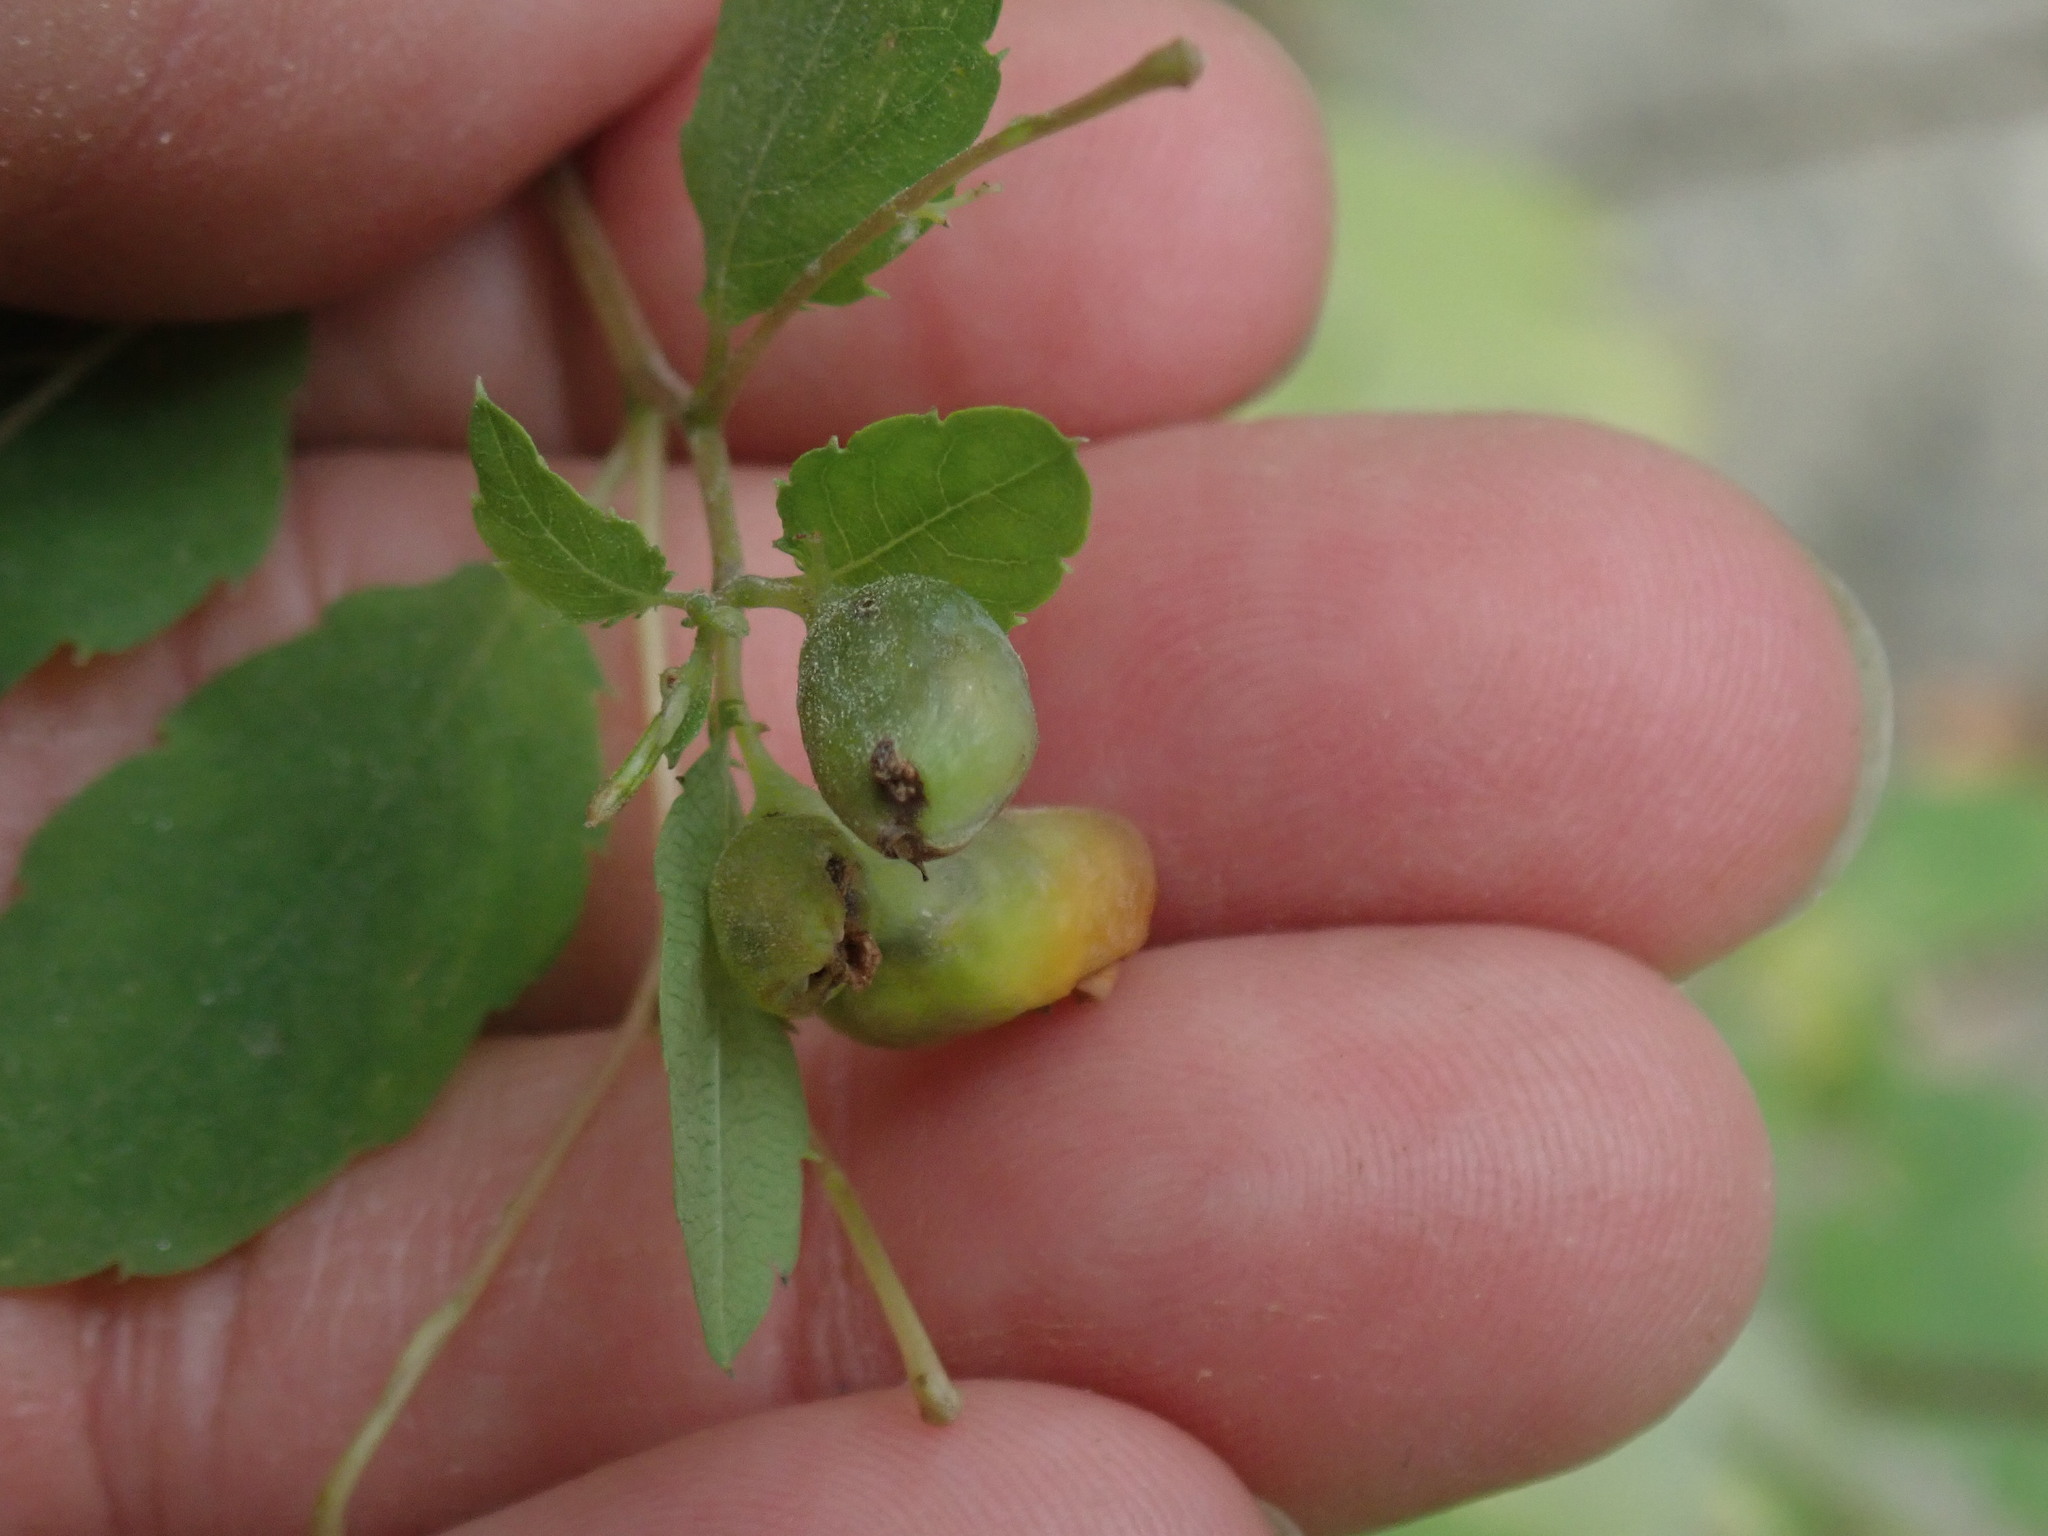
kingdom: Animalia
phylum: Arthropoda
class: Insecta
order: Diptera
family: Cecidomyiidae
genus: Schizomyia
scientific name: Schizomyia impatientis
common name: Jewelweed gall midge
